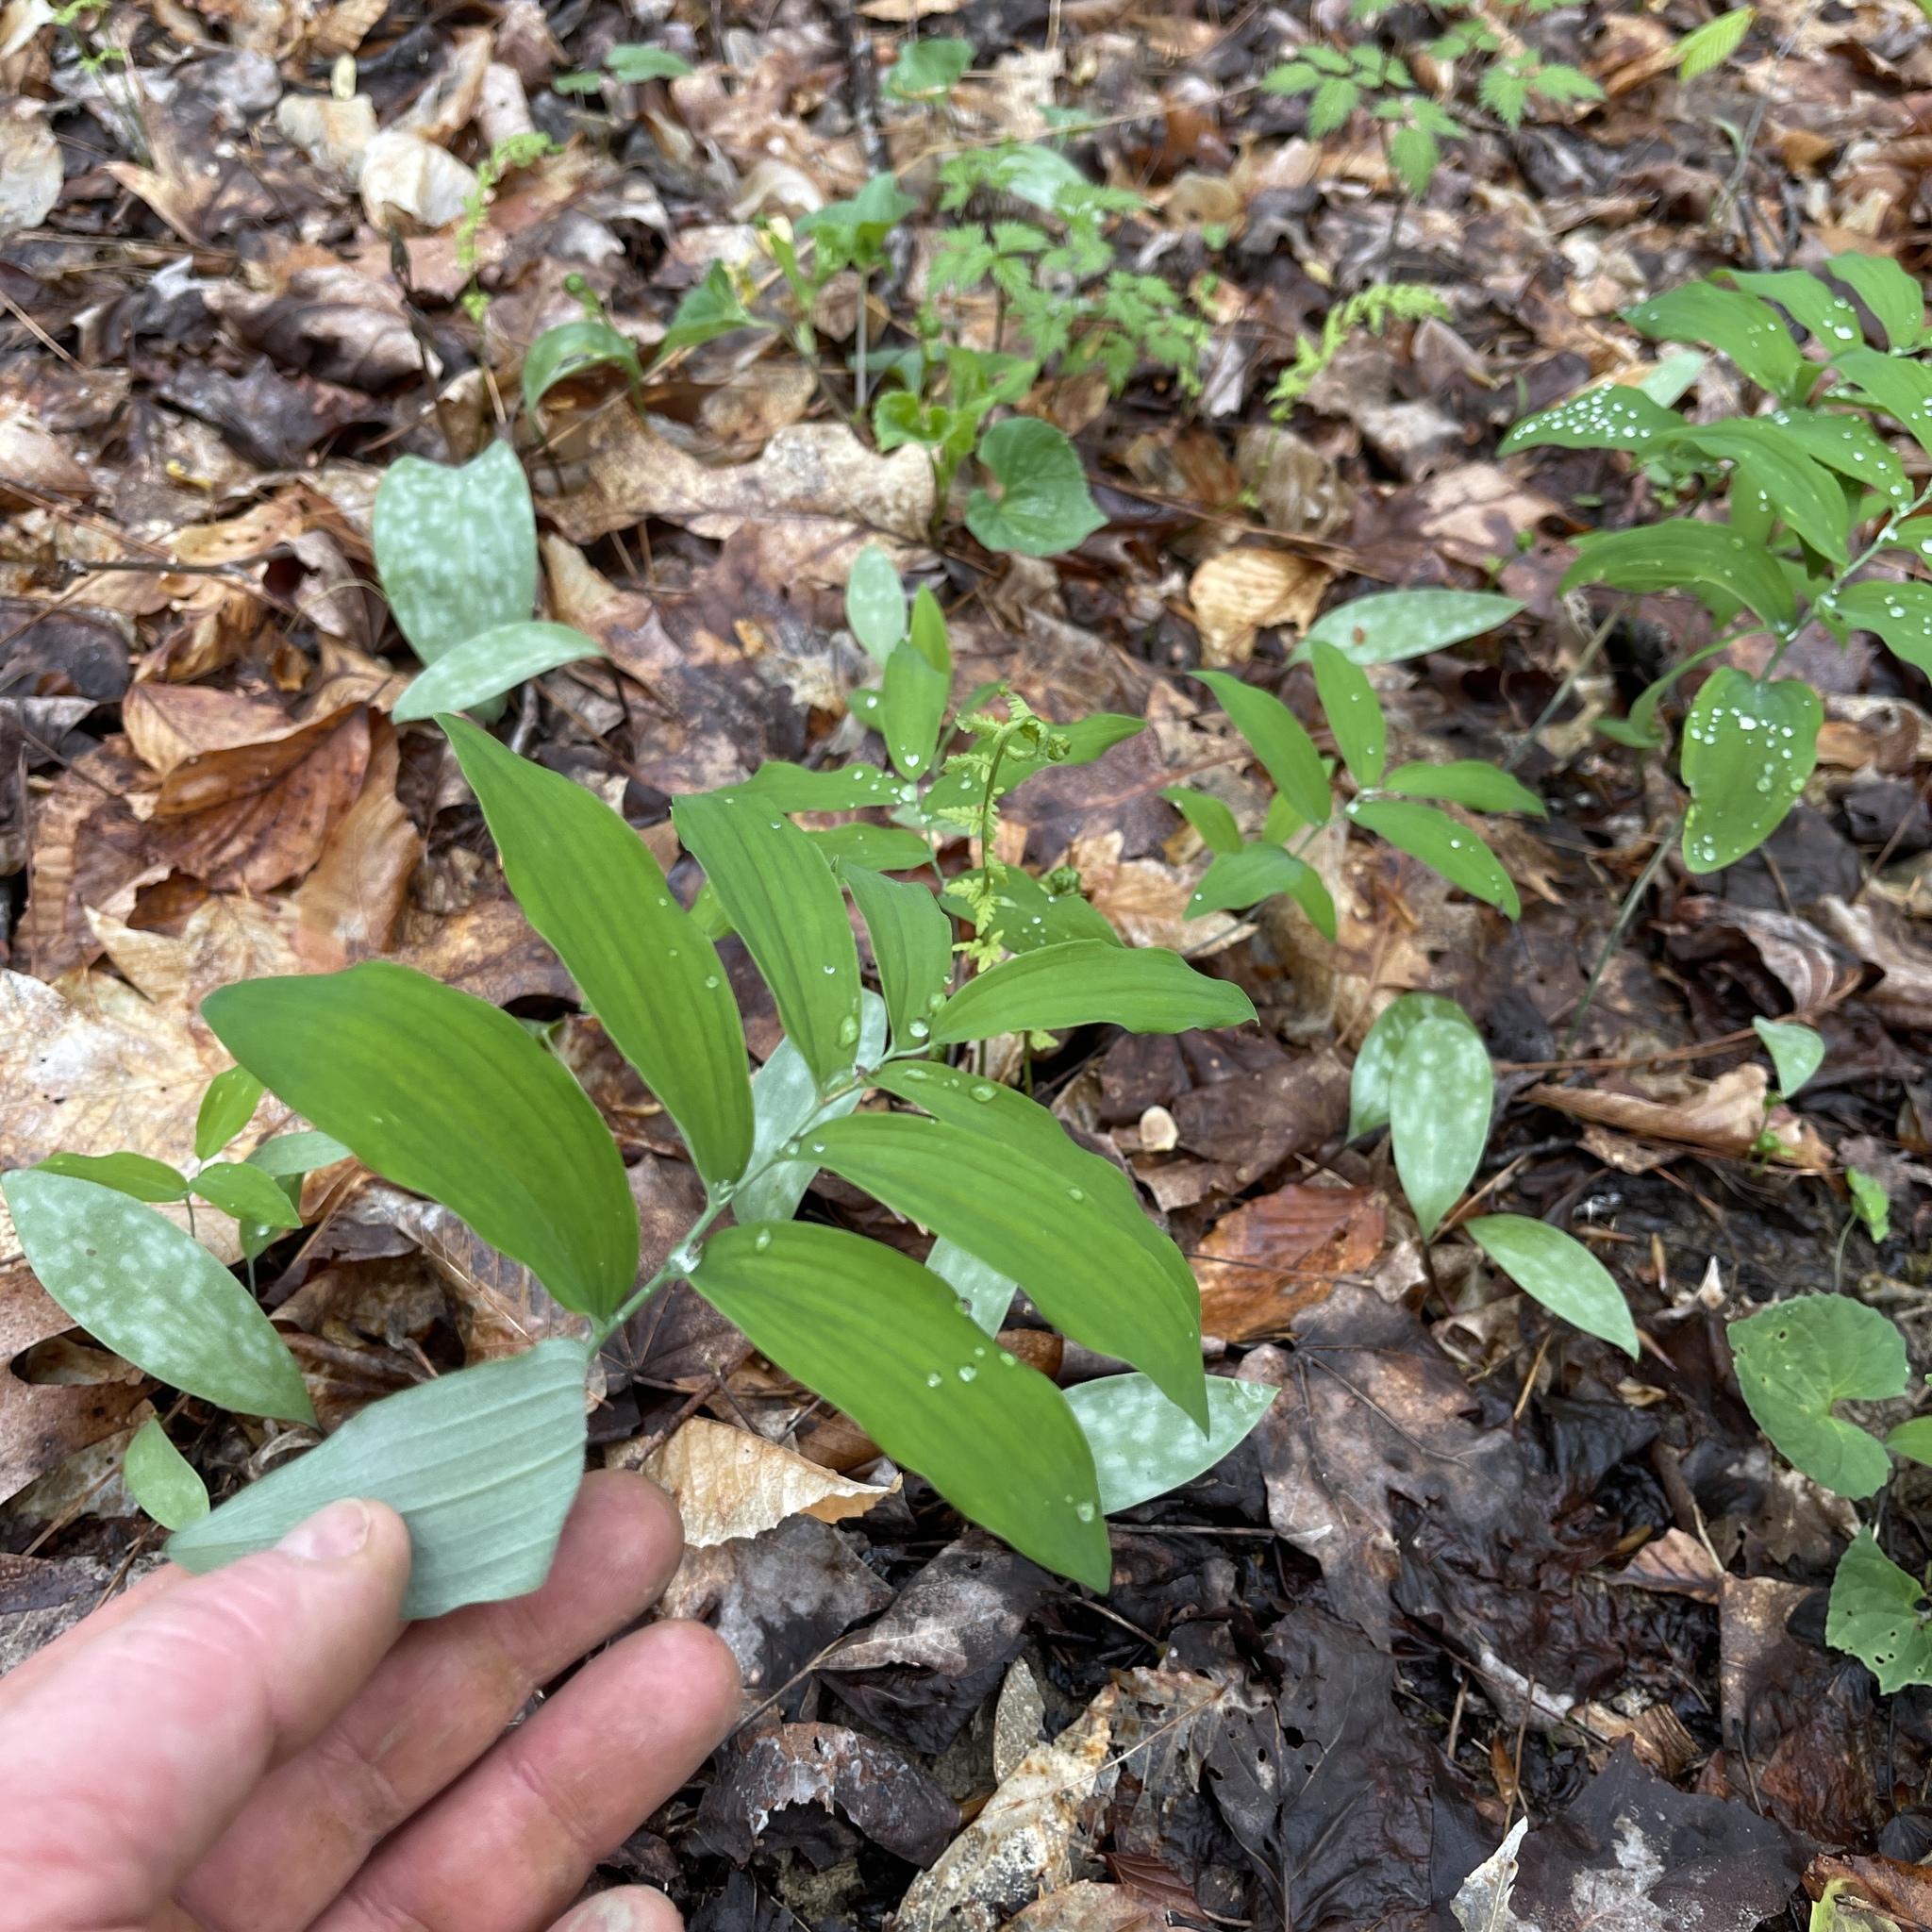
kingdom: Plantae
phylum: Tracheophyta
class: Liliopsida
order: Asparagales
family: Asparagaceae
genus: Polygonatum
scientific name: Polygonatum pubescens
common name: Downy solomon's seal
